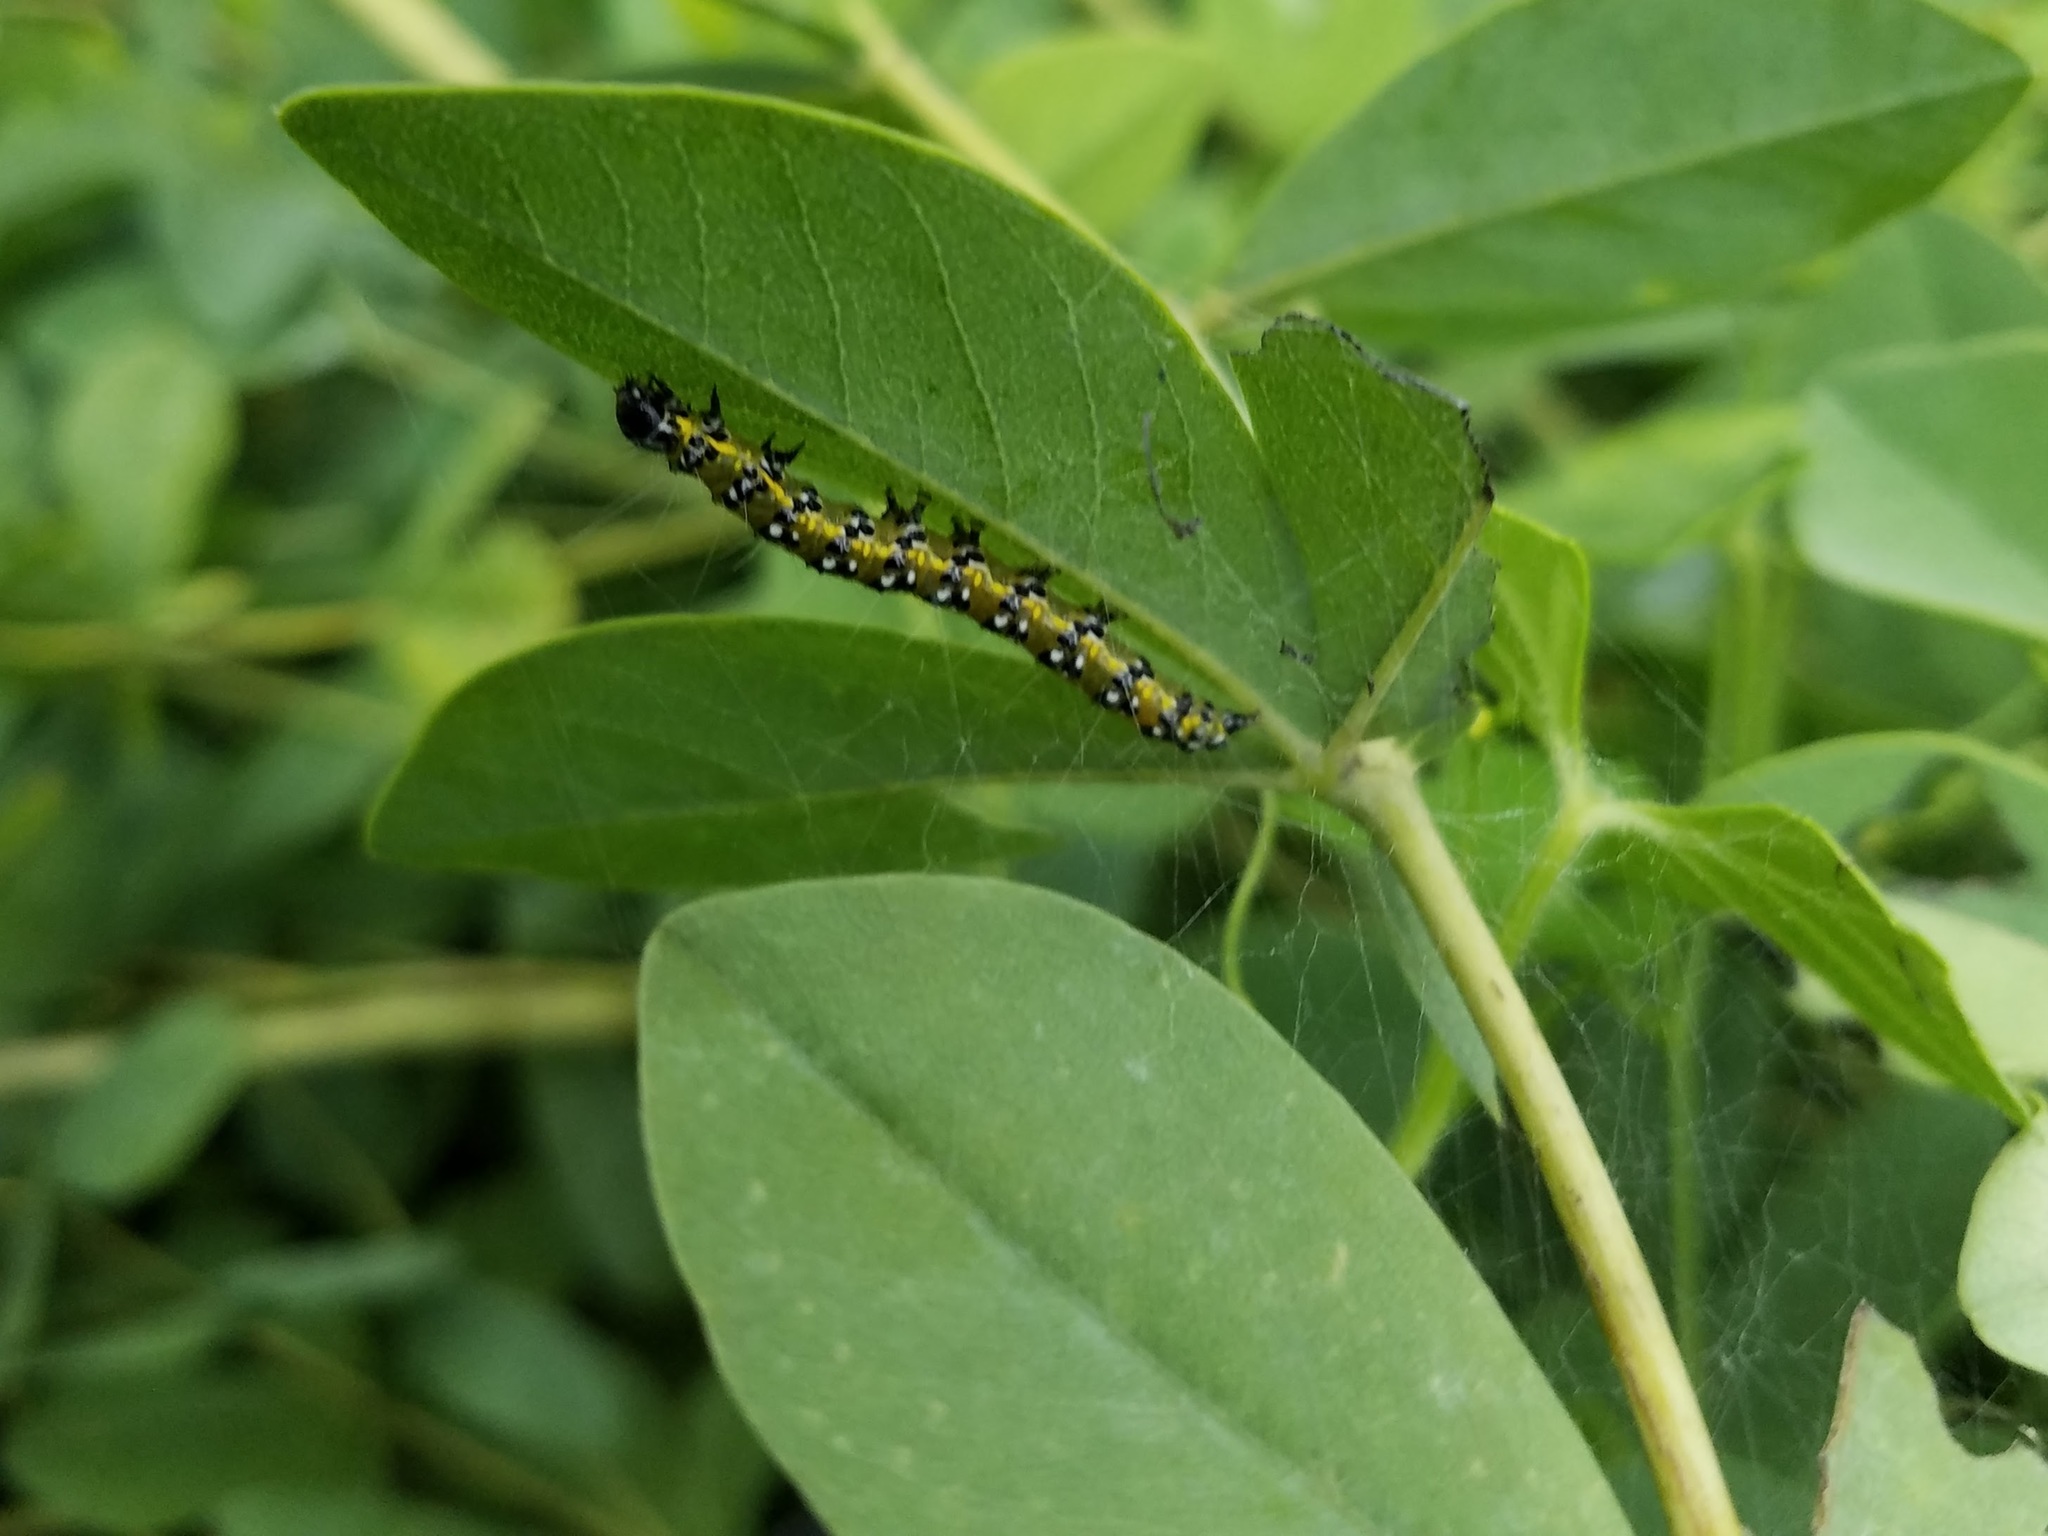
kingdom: Animalia
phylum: Arthropoda
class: Insecta
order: Lepidoptera
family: Crambidae
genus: Uresiphita
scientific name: Uresiphita reversalis
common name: Genista broom moth
